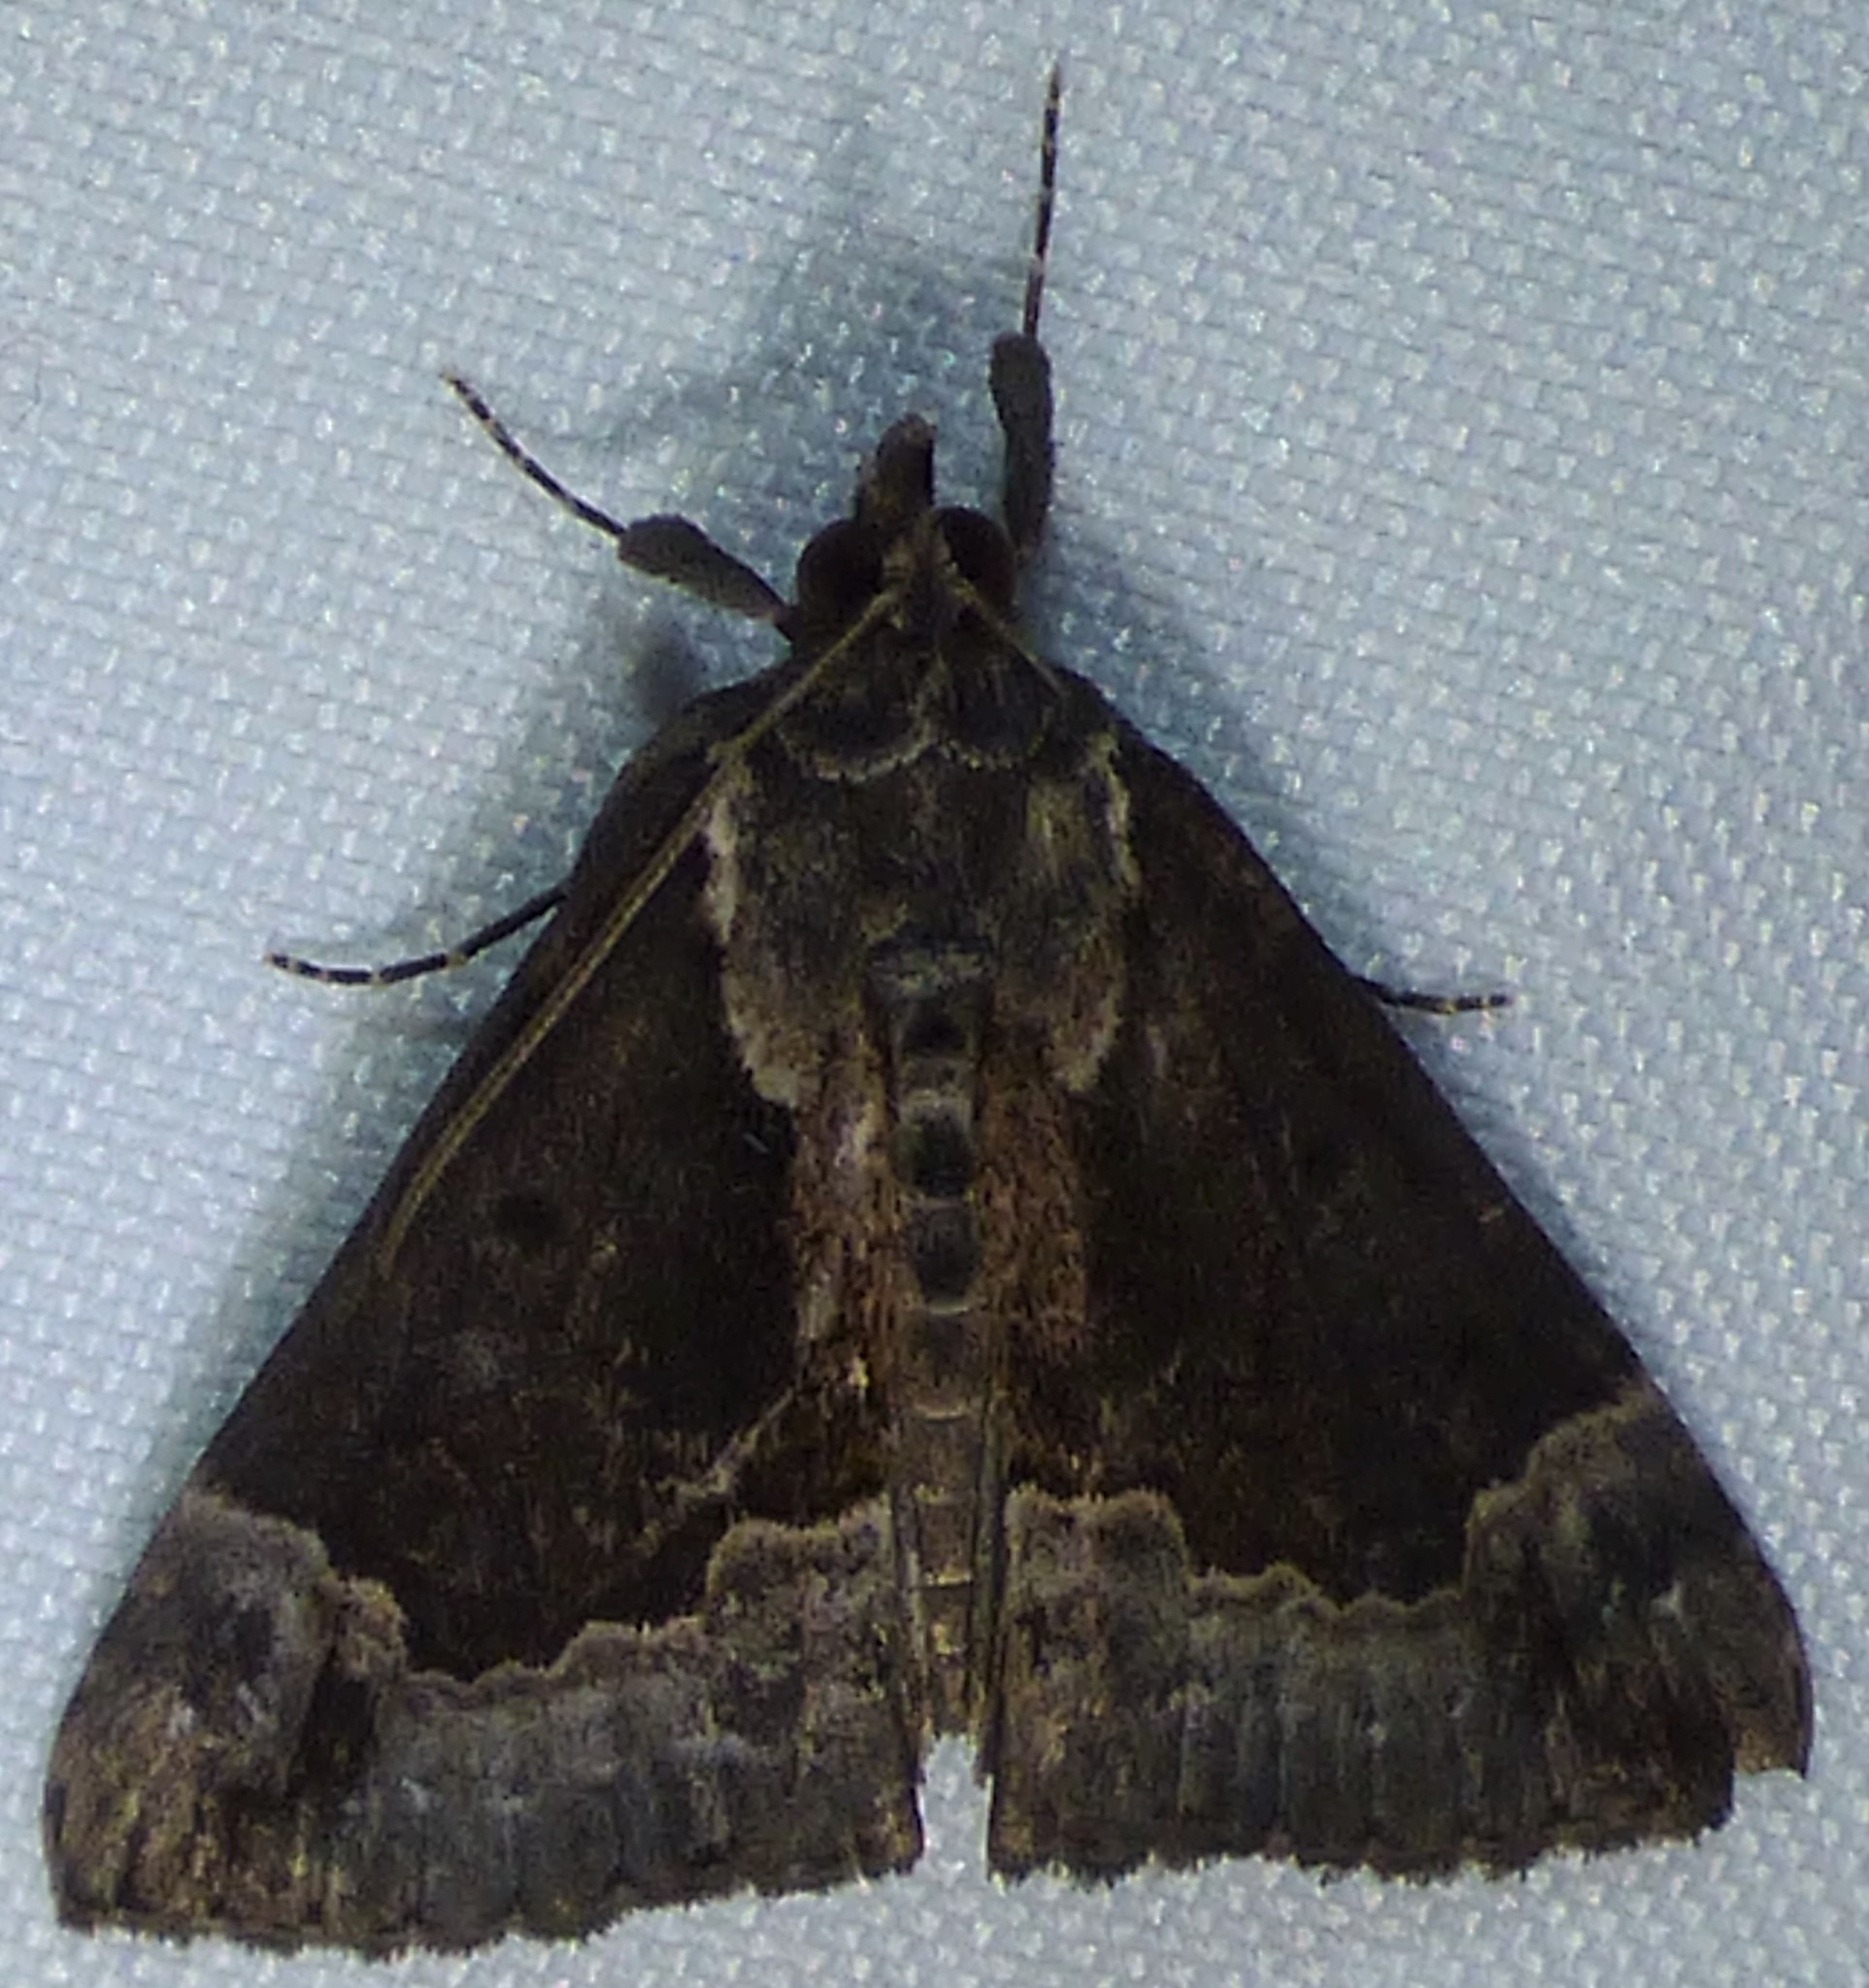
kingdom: Animalia
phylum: Arthropoda
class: Insecta
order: Lepidoptera
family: Erebidae
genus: Hypena
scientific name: Hypena baltimoralis
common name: Baltimore snout
